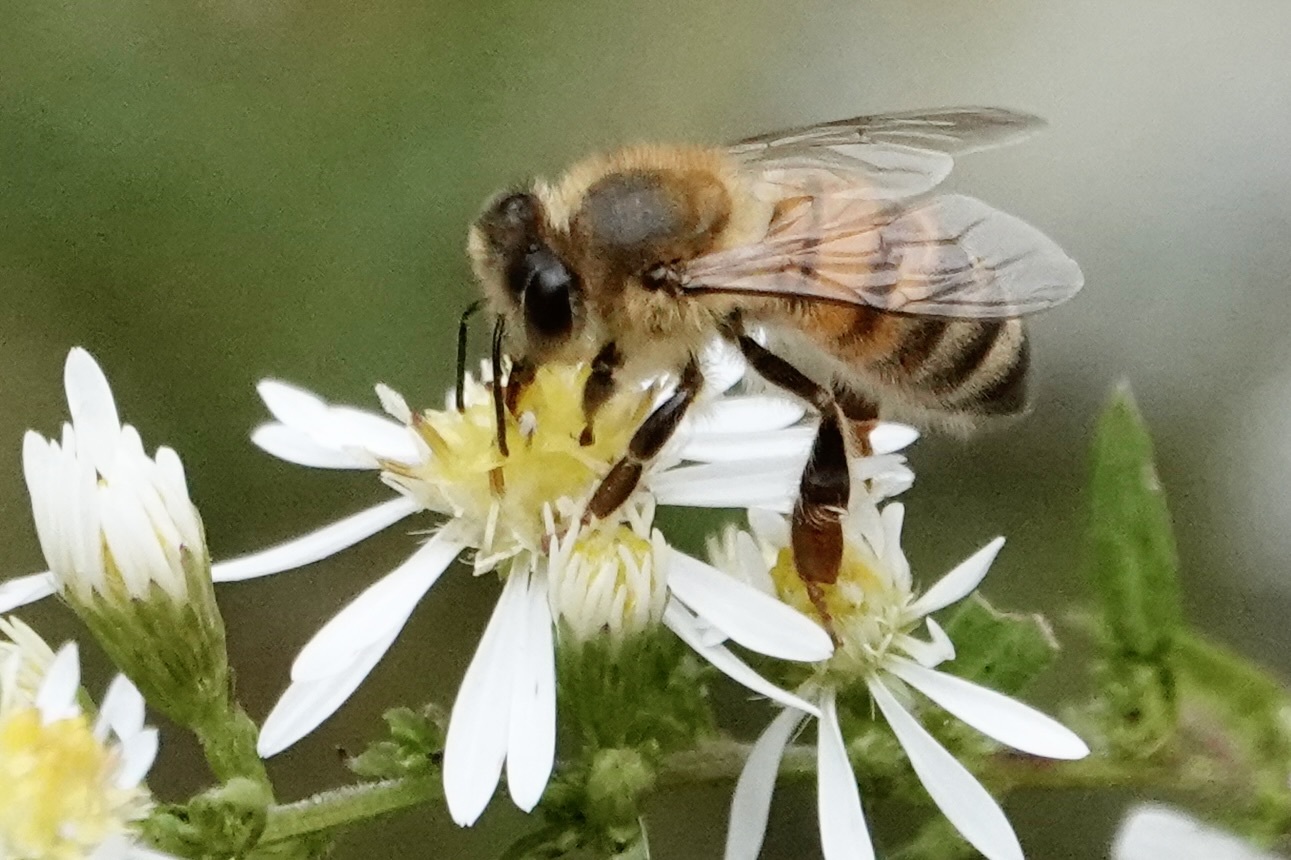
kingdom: Animalia
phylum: Arthropoda
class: Insecta
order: Hymenoptera
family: Apidae
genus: Apis
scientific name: Apis mellifera
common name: Honey bee
